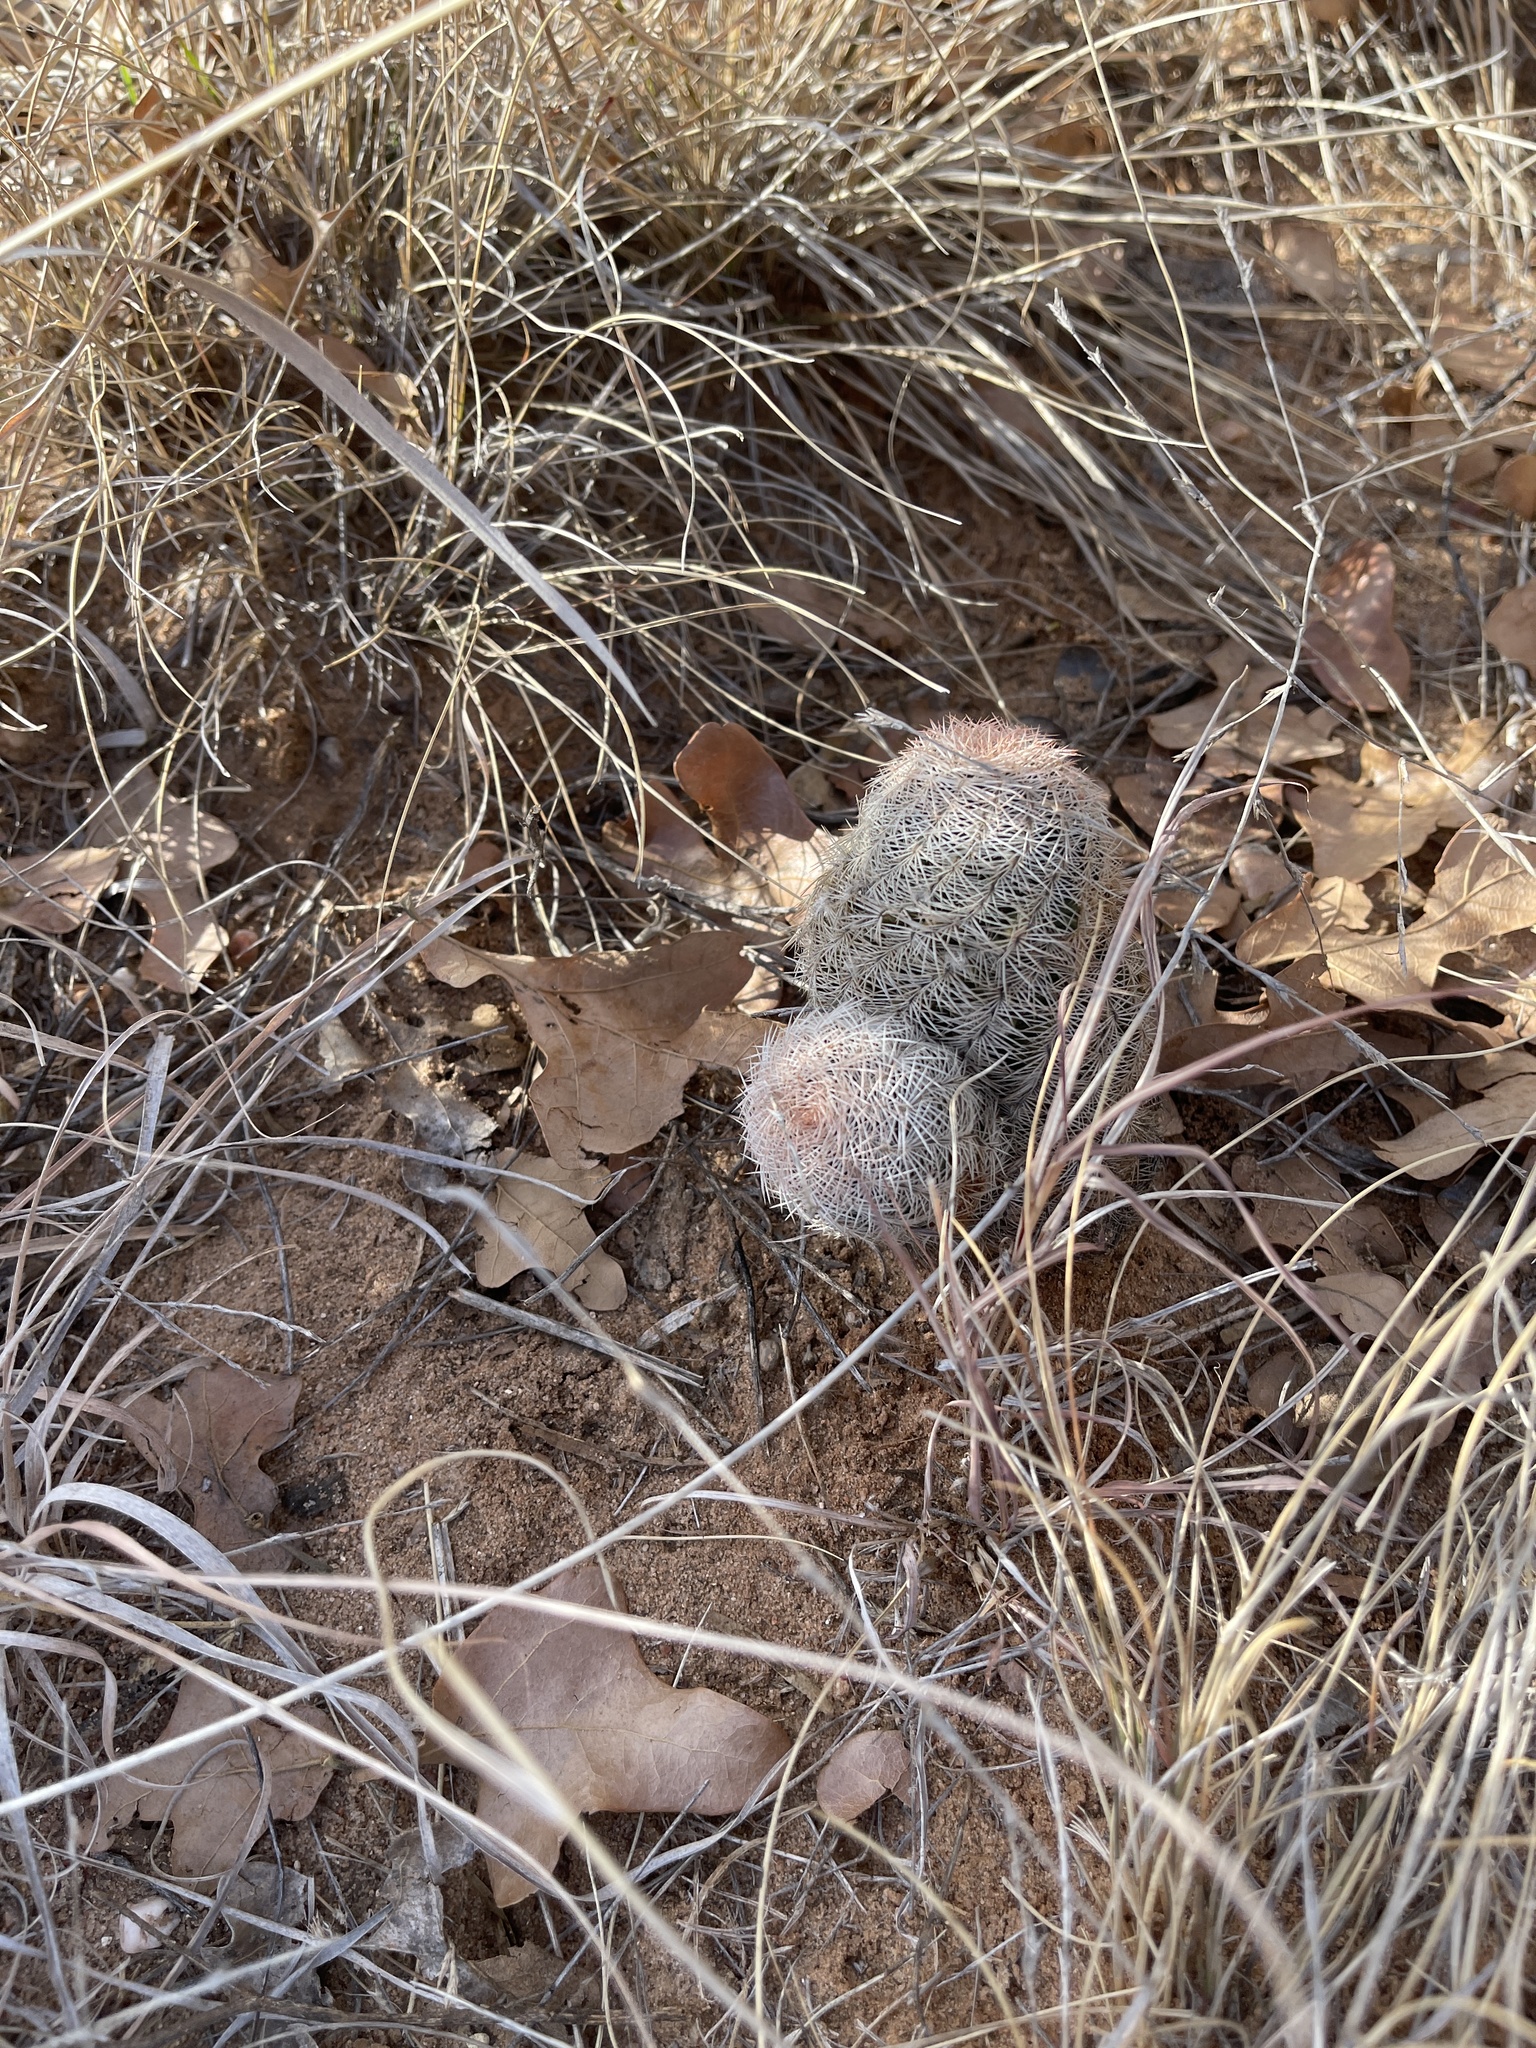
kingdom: Plantae
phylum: Tracheophyta
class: Magnoliopsida
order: Caryophyllales
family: Cactaceae
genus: Echinocereus
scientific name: Echinocereus reichenbachii
